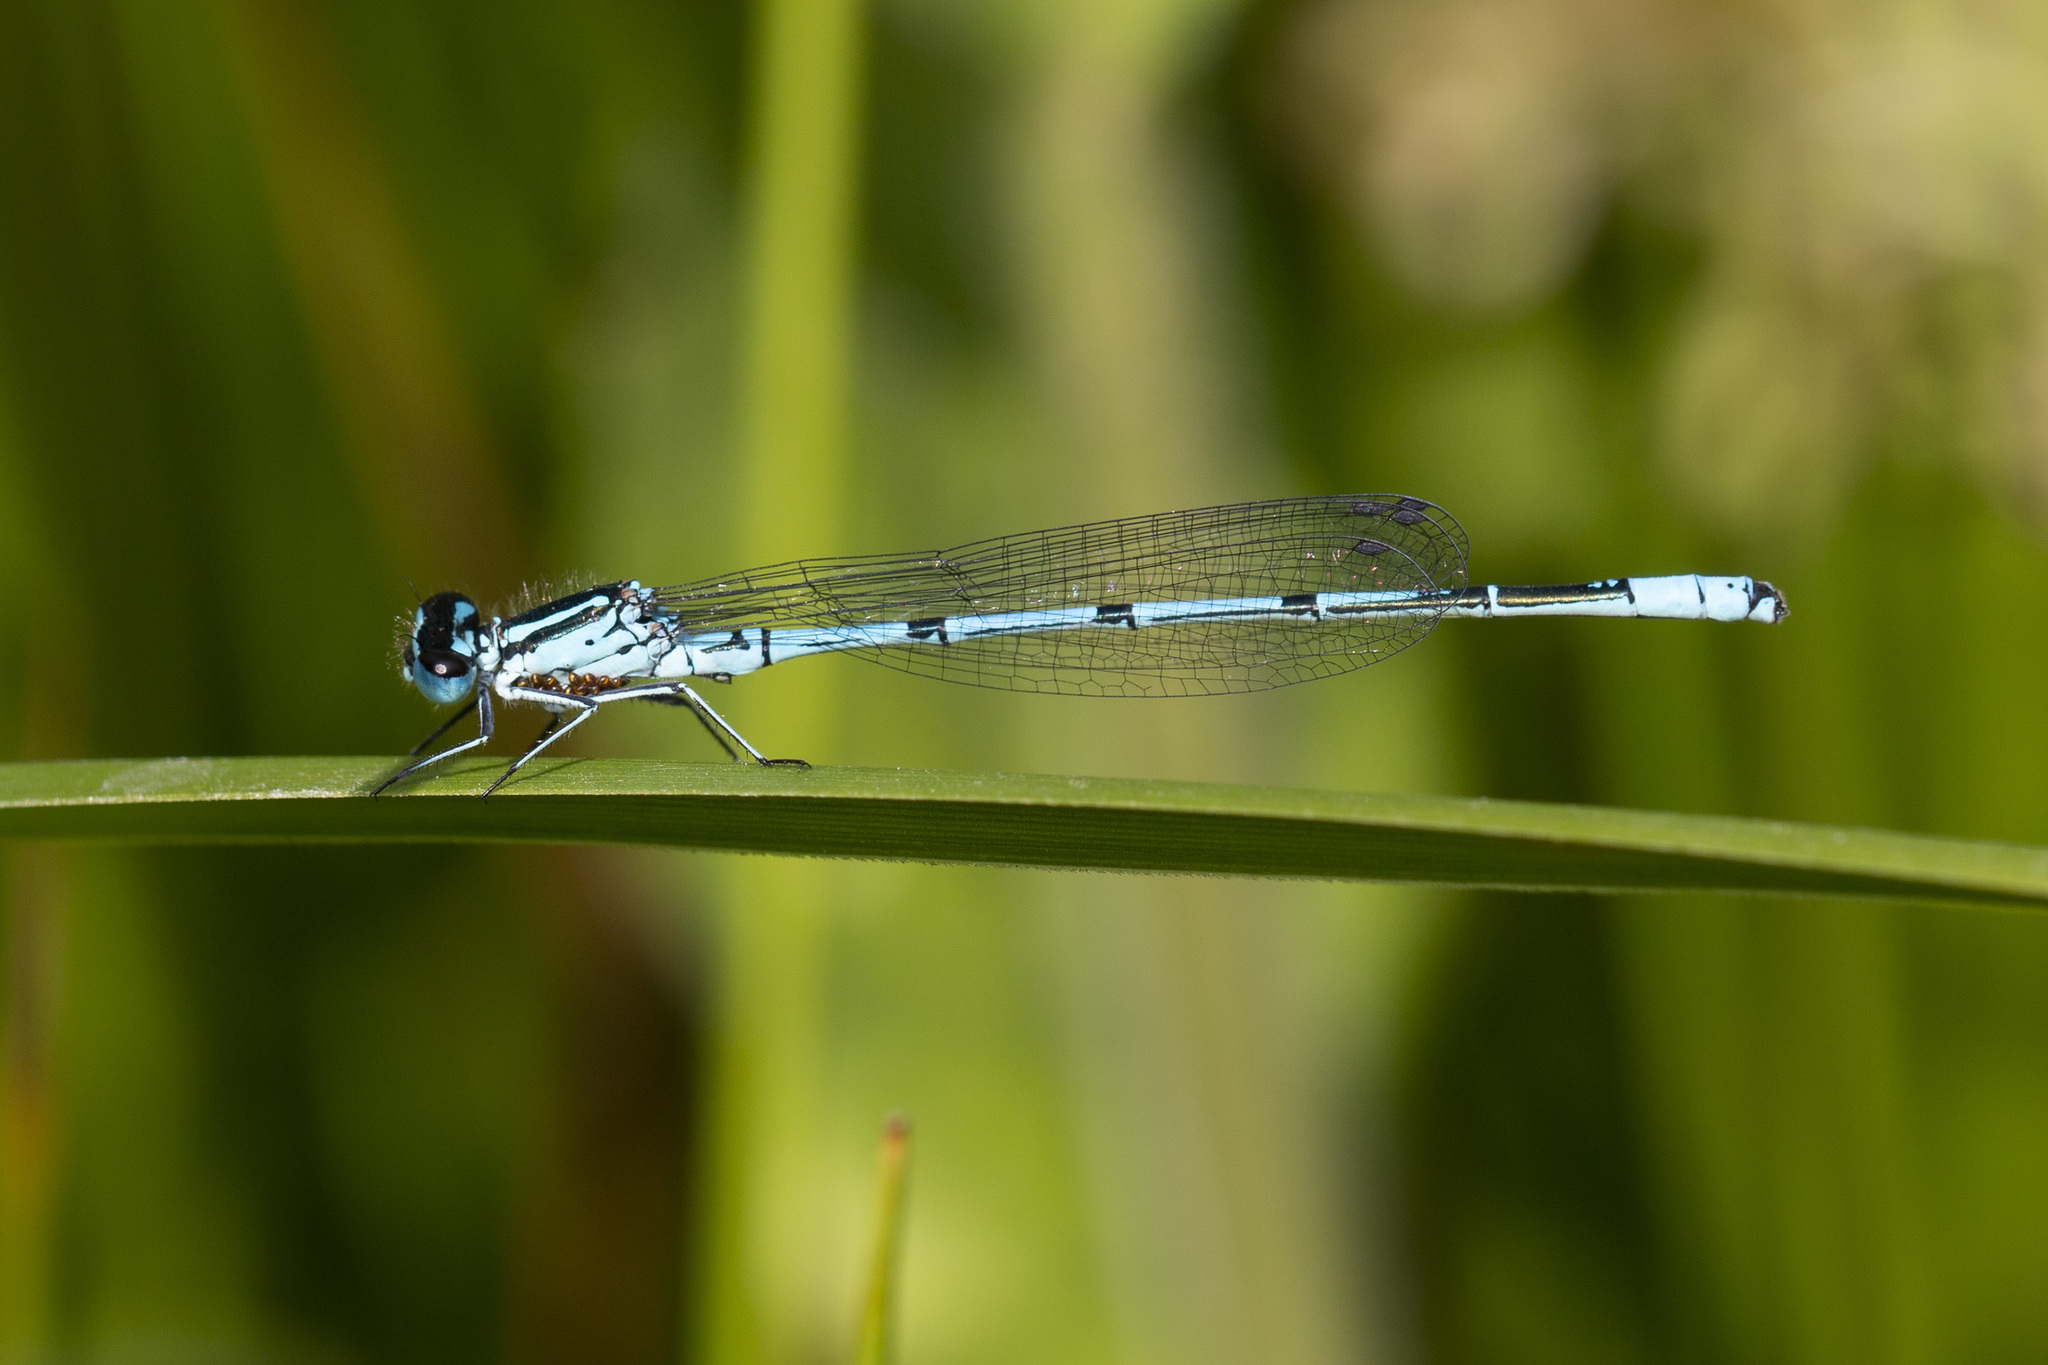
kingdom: Animalia
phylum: Arthropoda
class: Insecta
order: Odonata
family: Coenagrionidae
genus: Coenagrion
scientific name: Coenagrion puella
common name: Azure damselfly
